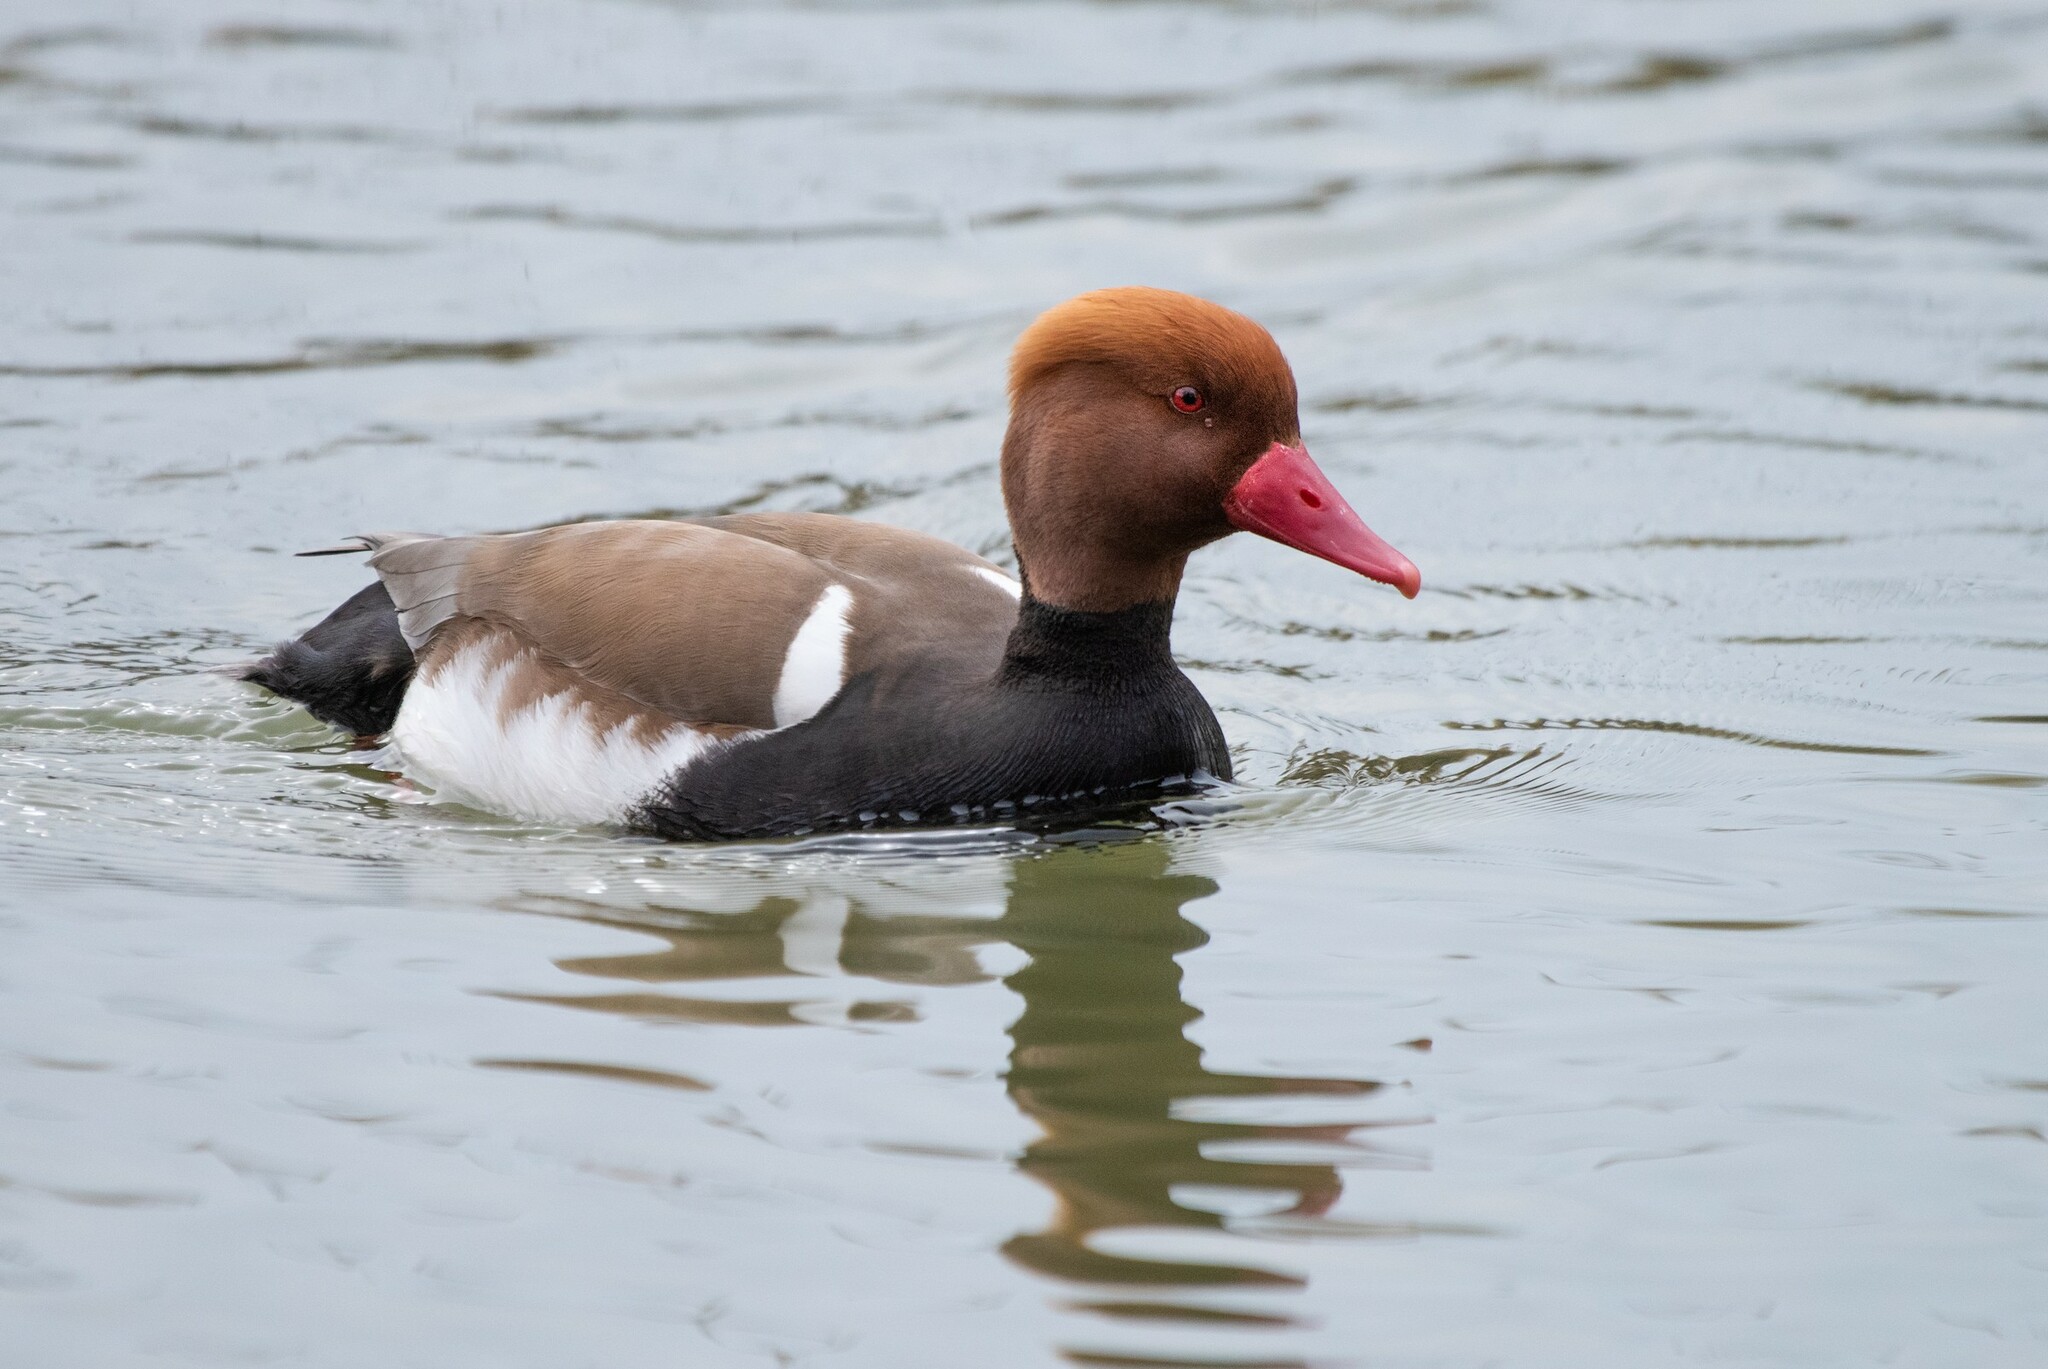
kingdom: Animalia
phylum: Chordata
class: Aves
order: Anseriformes
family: Anatidae
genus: Netta
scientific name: Netta rufina
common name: Red-crested pochard
